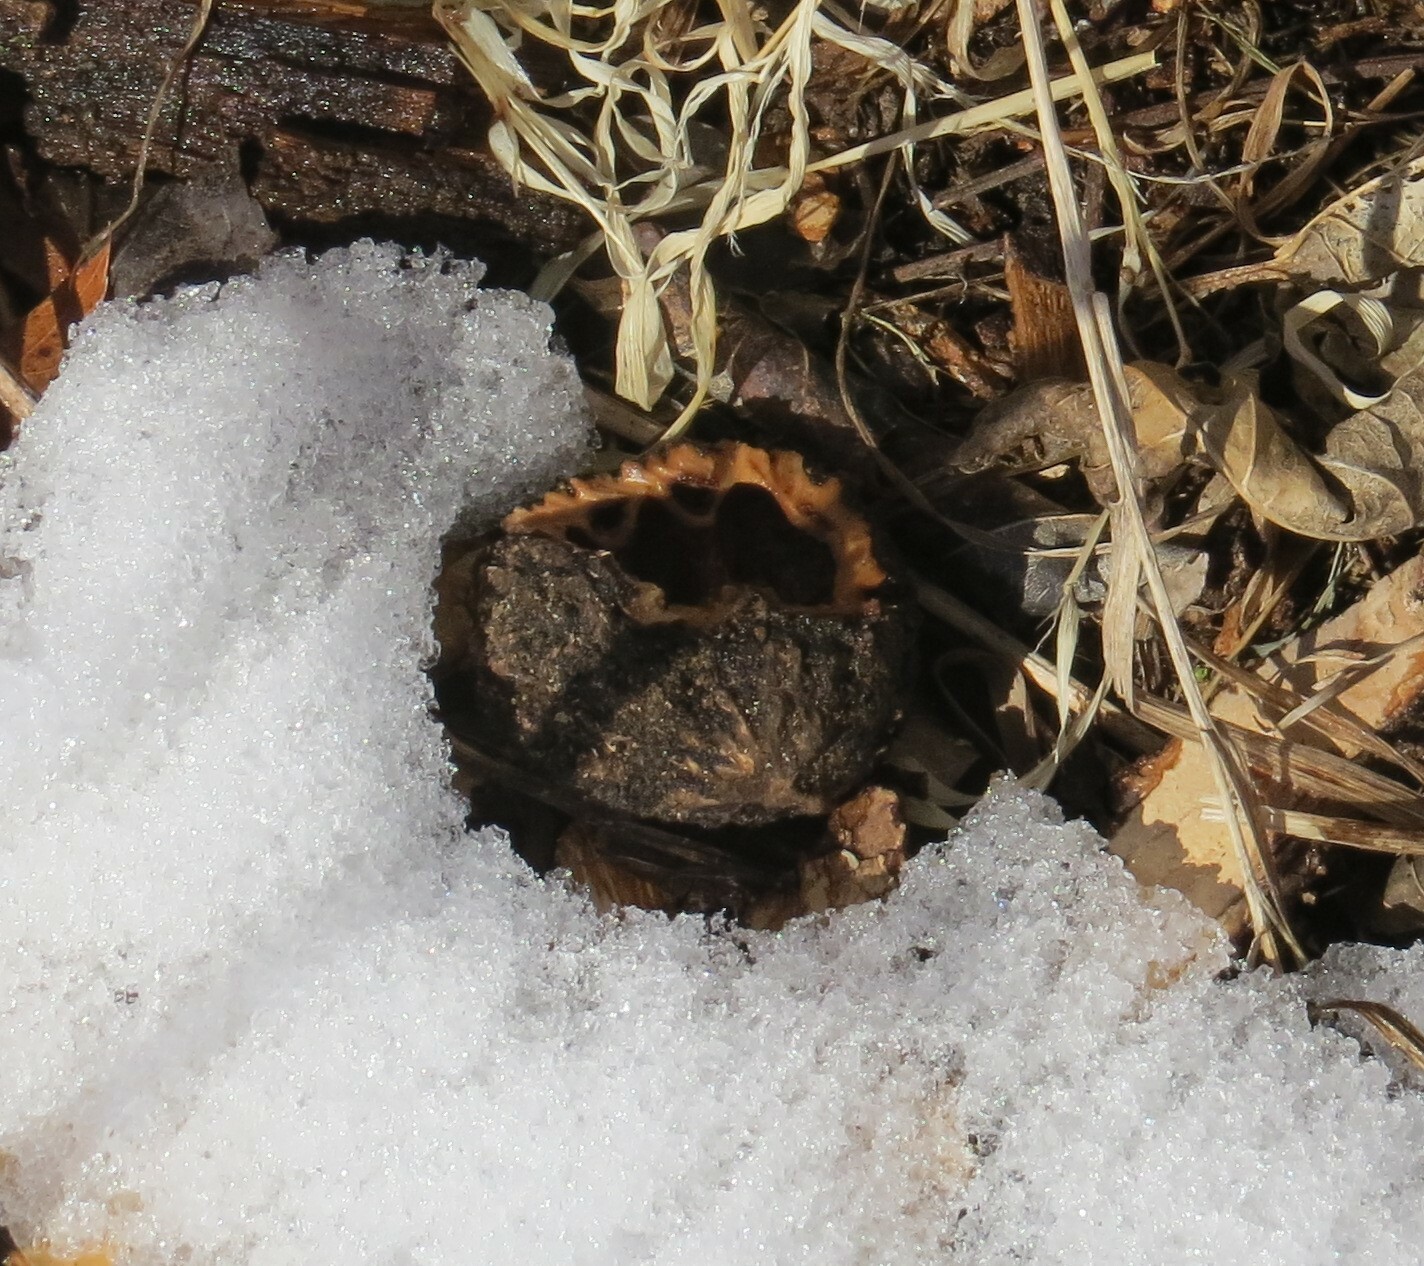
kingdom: Plantae
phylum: Tracheophyta
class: Magnoliopsida
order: Fagales
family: Juglandaceae
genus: Juglans
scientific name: Juglans nigra
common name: Black walnut
